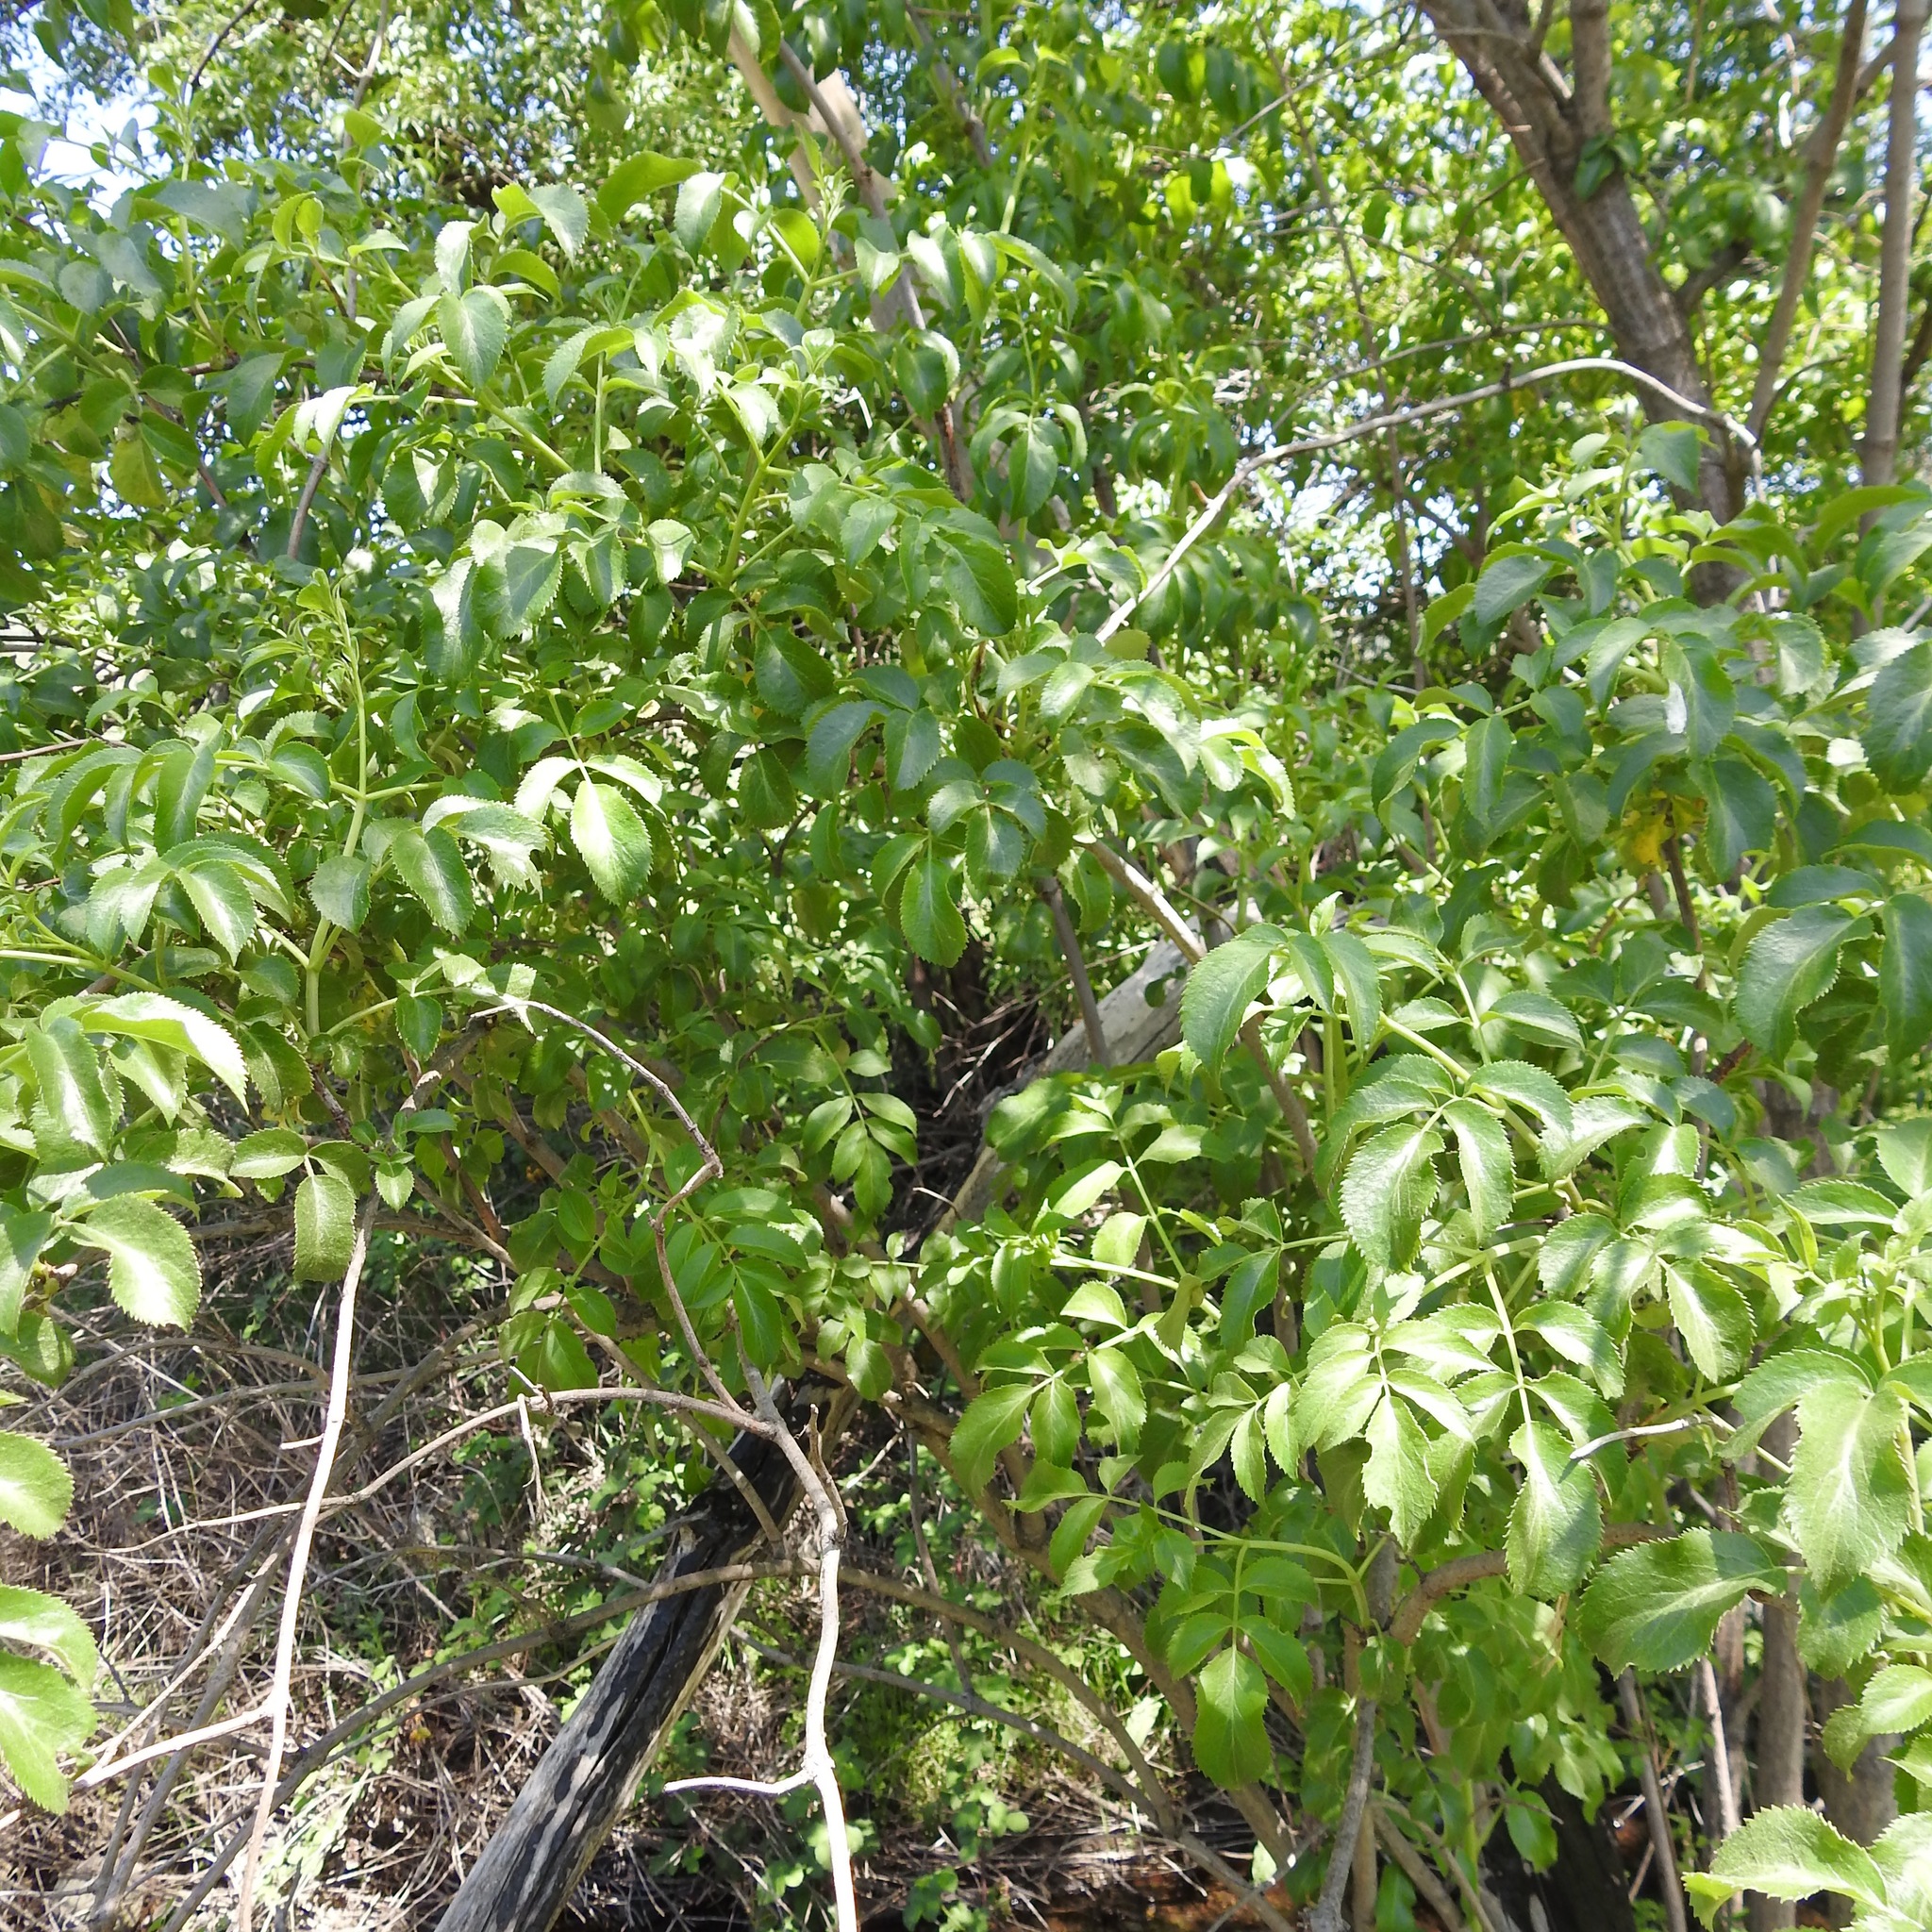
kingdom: Plantae
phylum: Tracheophyta
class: Magnoliopsida
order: Dipsacales
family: Viburnaceae
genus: Sambucus
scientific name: Sambucus cerulea
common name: Blue elder
